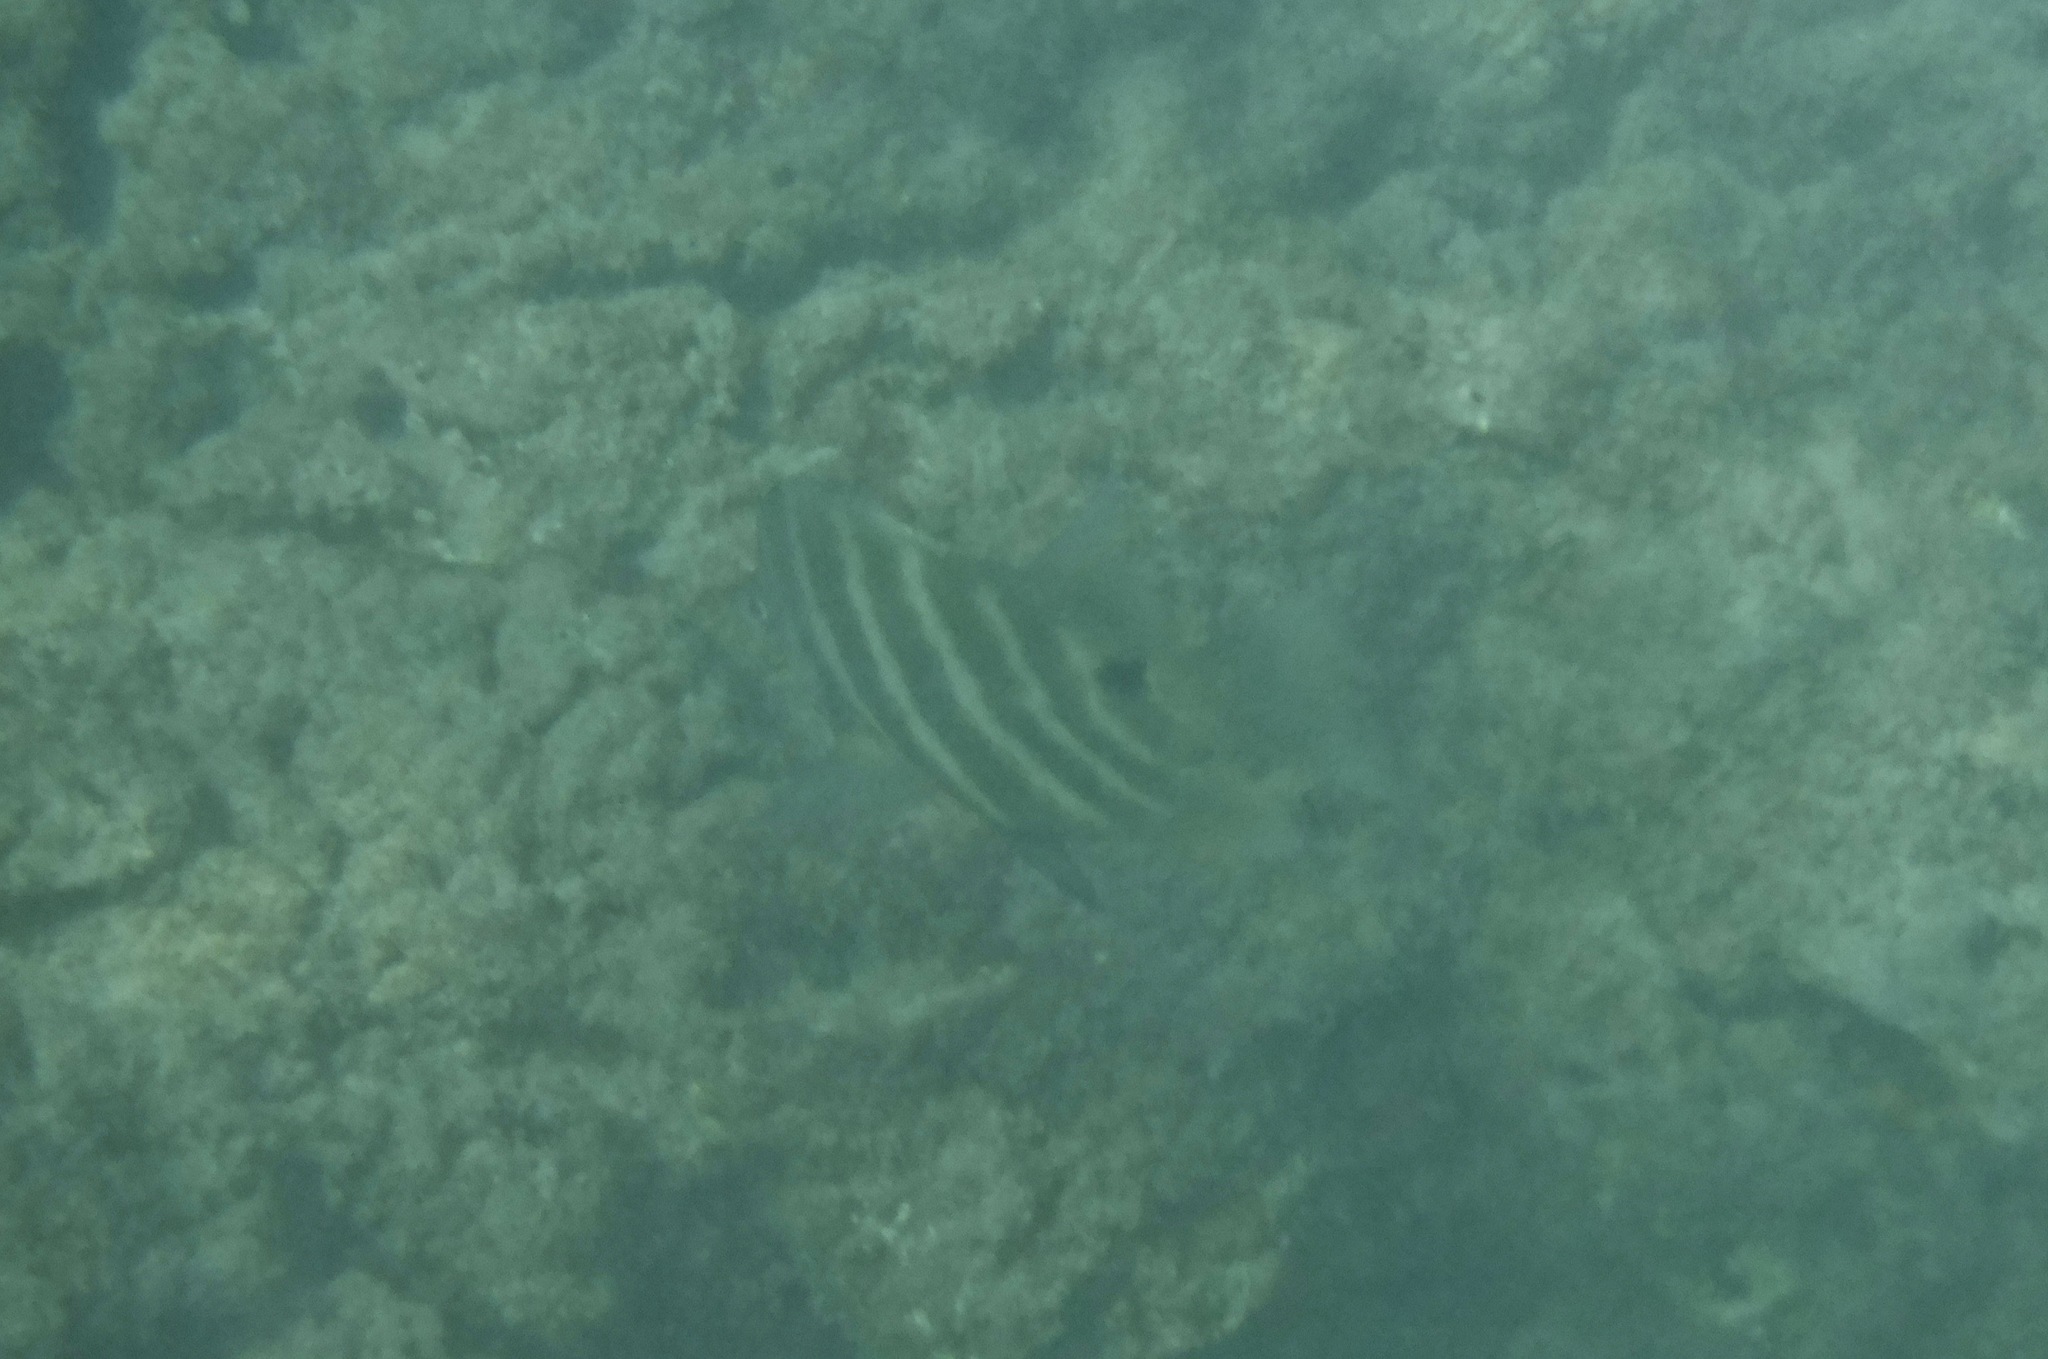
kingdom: Animalia
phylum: Chordata
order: Perciformes
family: Pomacentridae
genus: Abudefduf
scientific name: Abudefduf sordidus
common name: Blackspot sergeant
